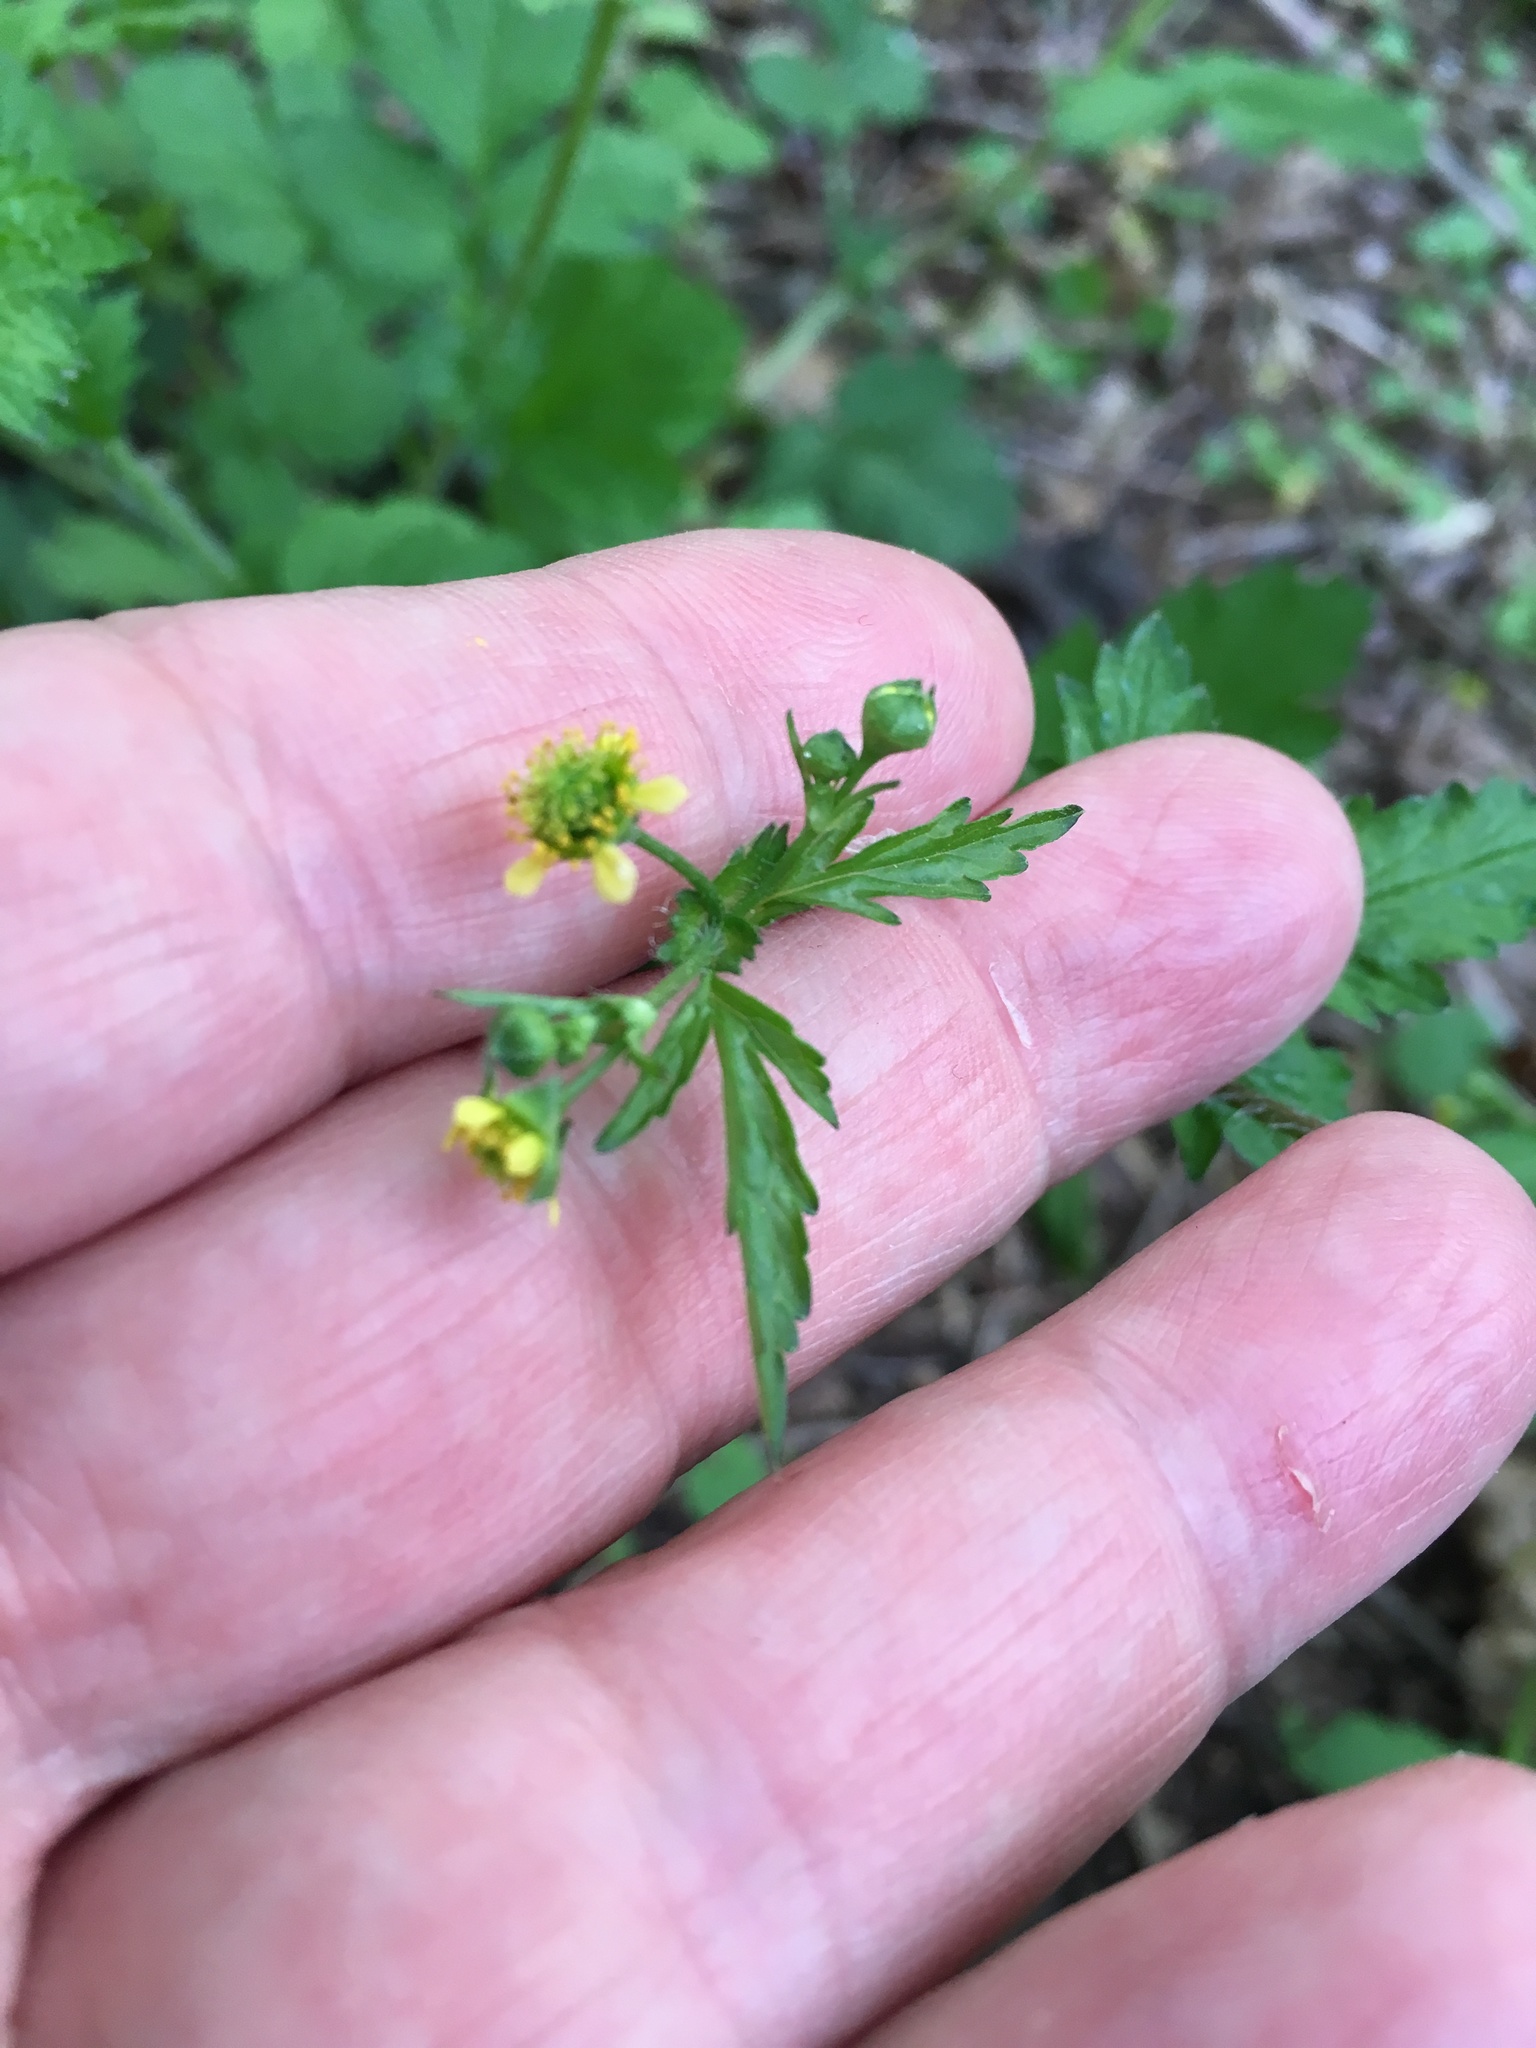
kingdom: Plantae
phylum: Tracheophyta
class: Magnoliopsida
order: Rosales
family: Rosaceae
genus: Geum
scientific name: Geum vernum
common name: Spring avens
